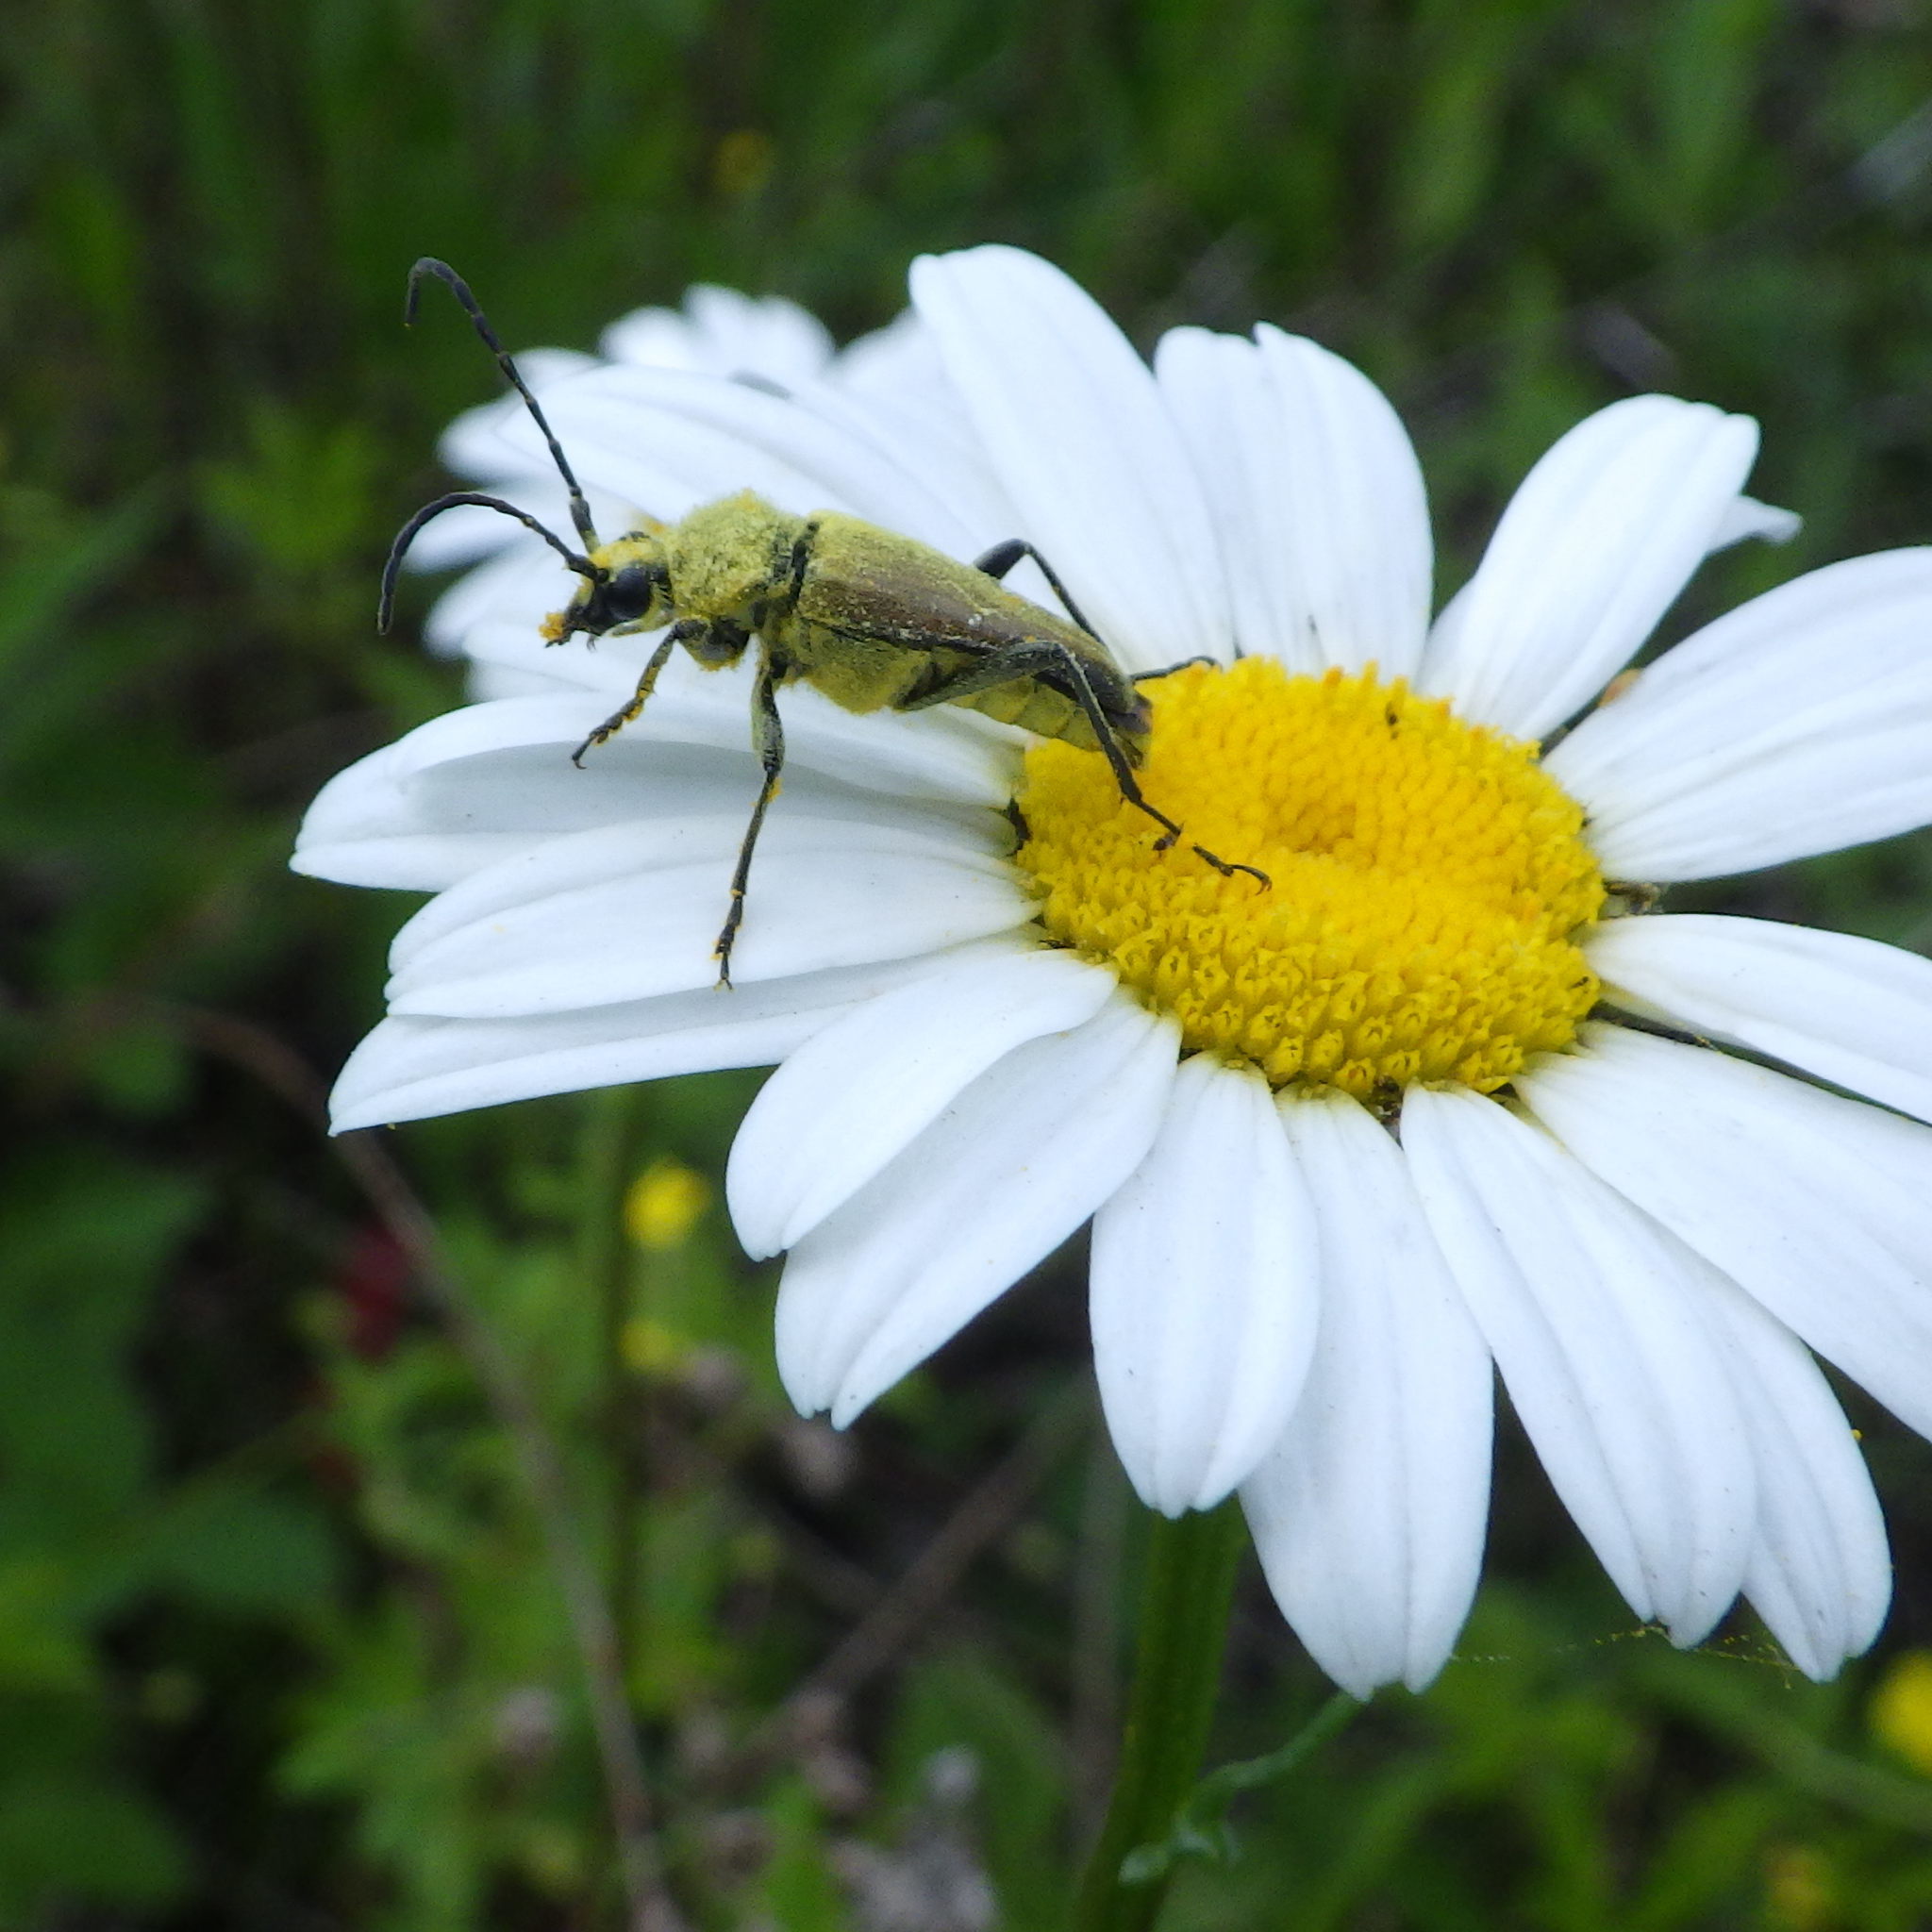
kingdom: Animalia
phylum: Arthropoda
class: Insecta
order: Coleoptera
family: Cerambycidae
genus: Cosmosalia
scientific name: Cosmosalia chrysocoma
